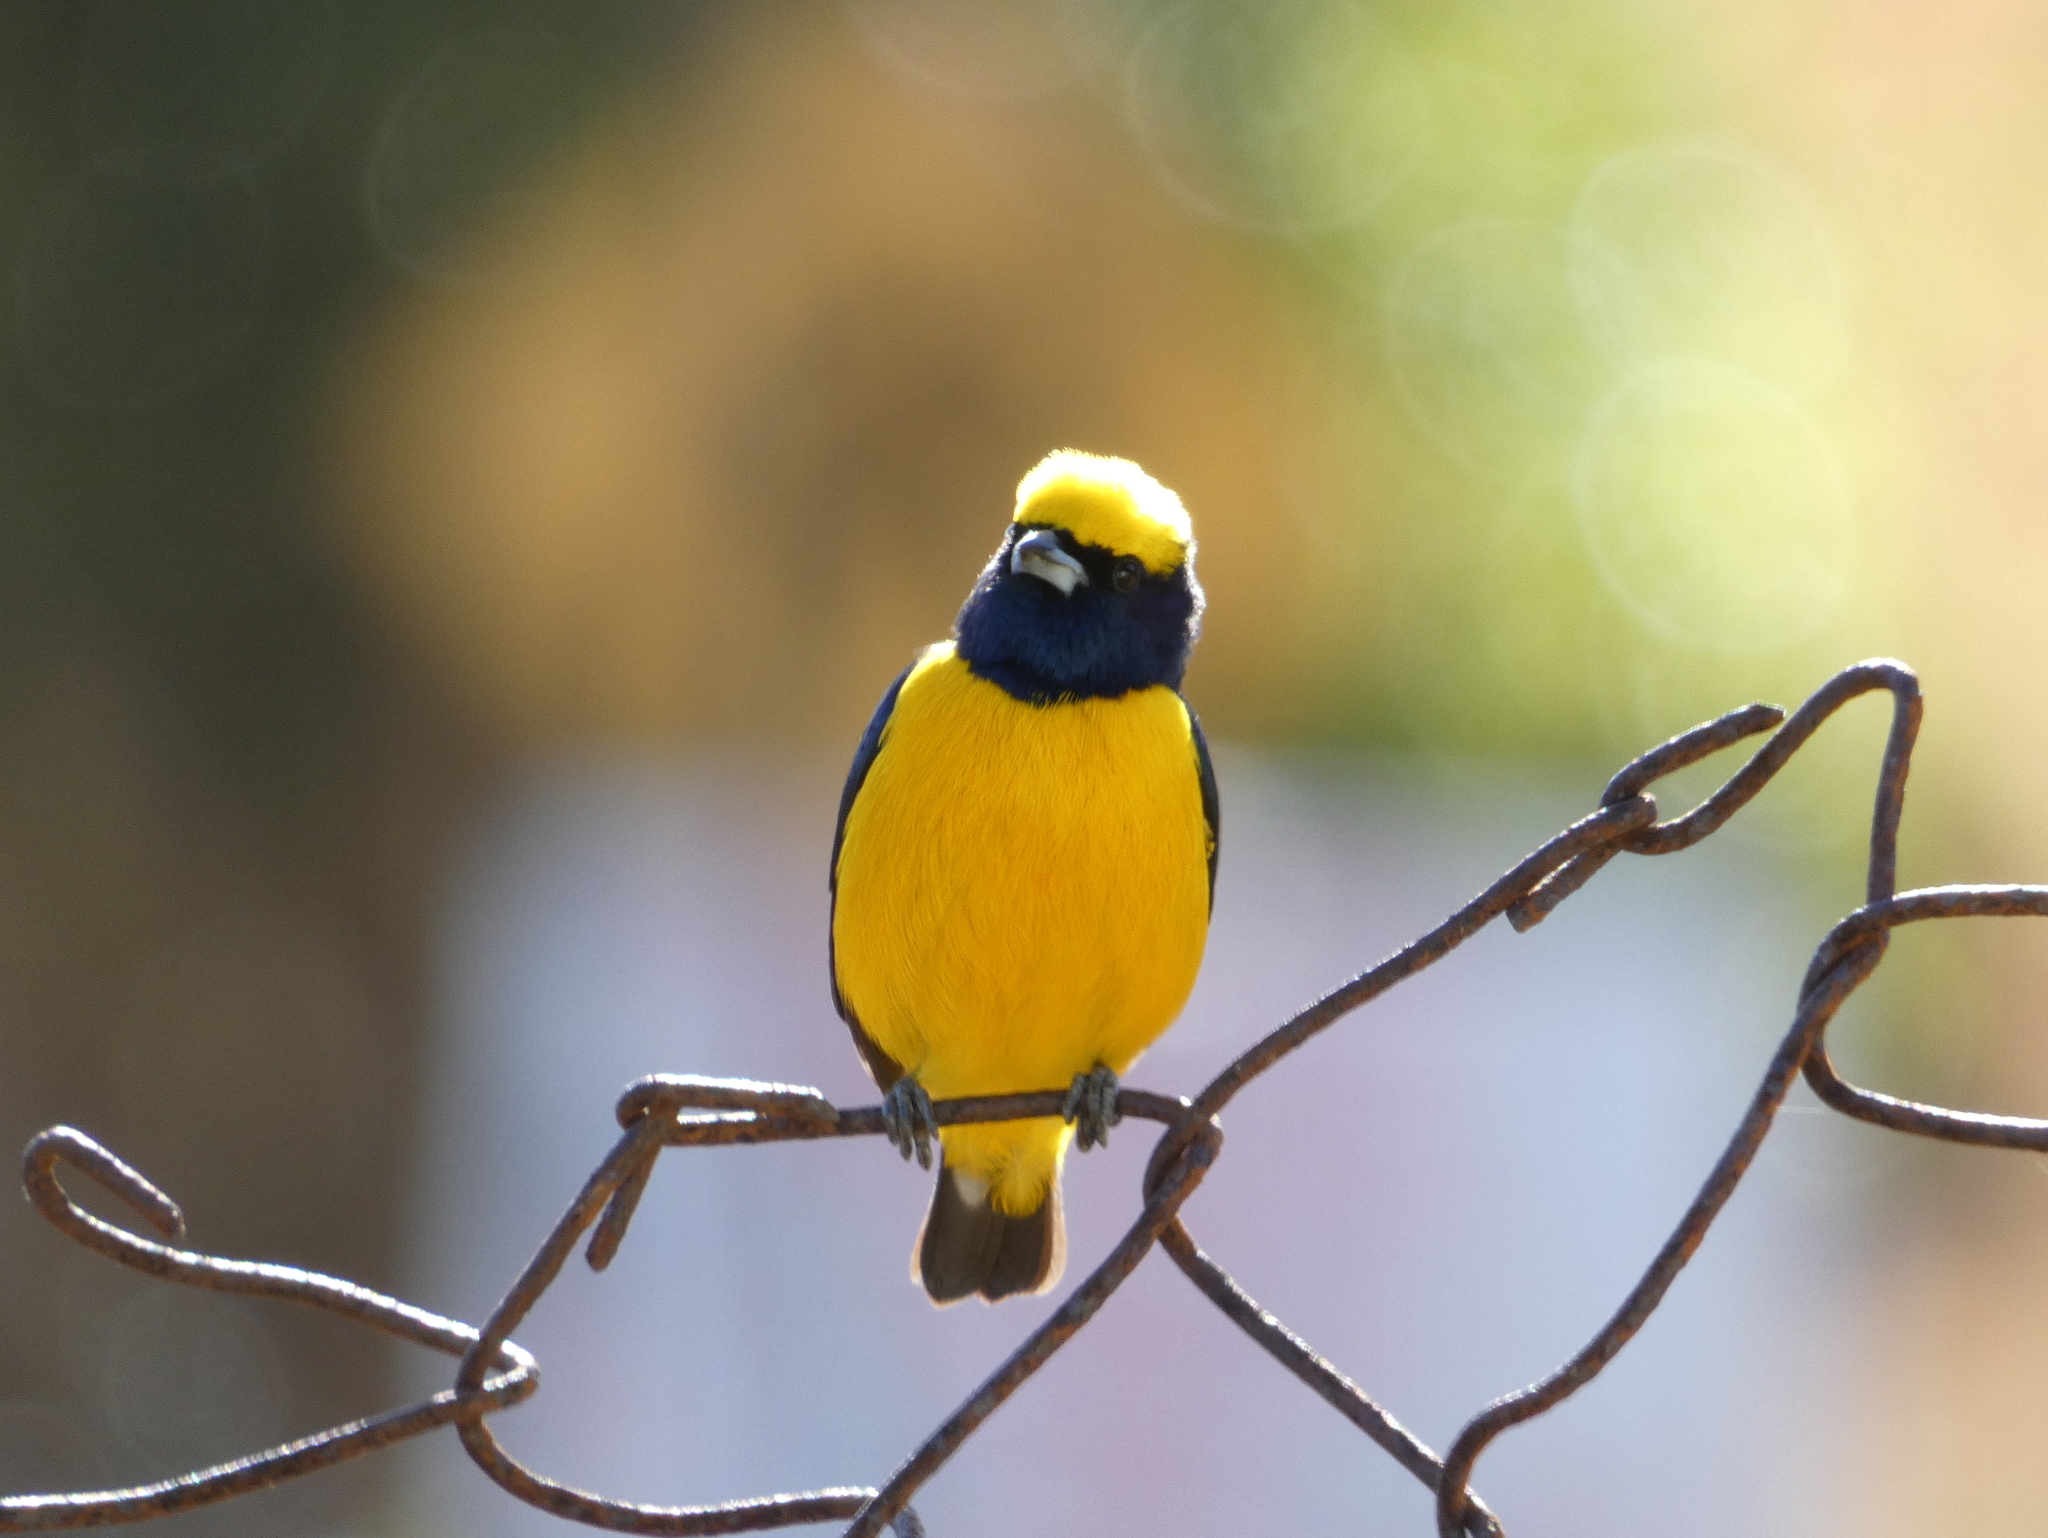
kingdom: Animalia
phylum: Chordata
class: Aves
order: Passeriformes
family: Fringillidae
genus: Euphonia
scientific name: Euphonia luteicapilla
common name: Yellow-crowned euphonia
